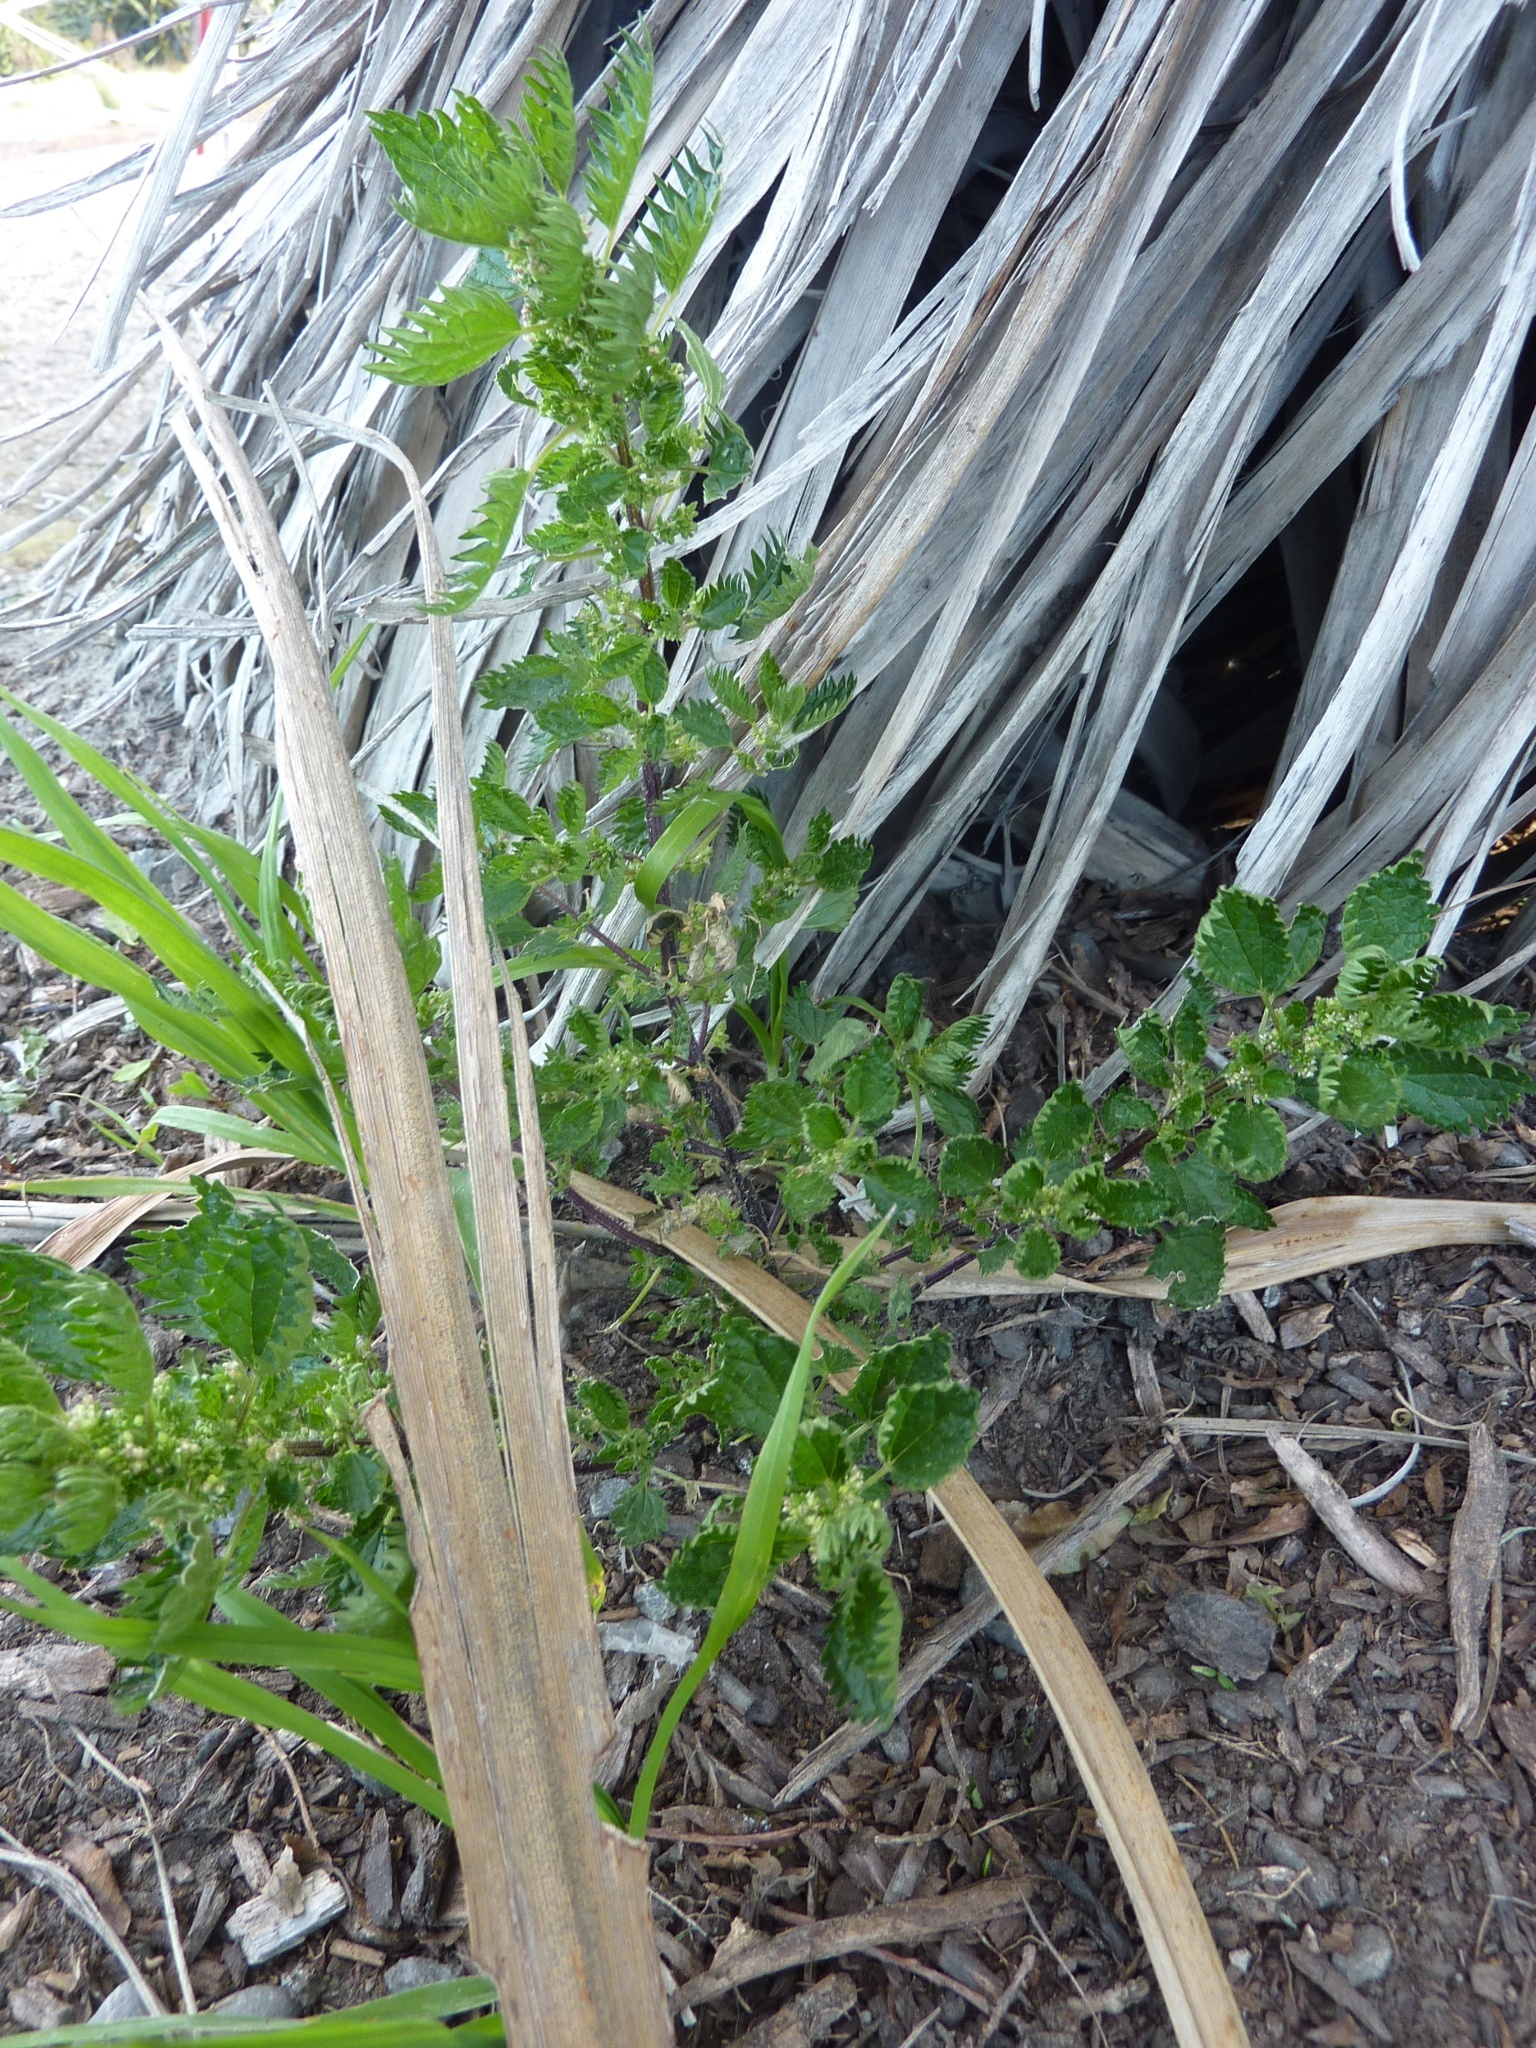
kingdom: Plantae
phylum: Tracheophyta
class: Magnoliopsida
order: Rosales
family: Urticaceae
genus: Urtica
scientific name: Urtica urens
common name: Dwarf nettle
